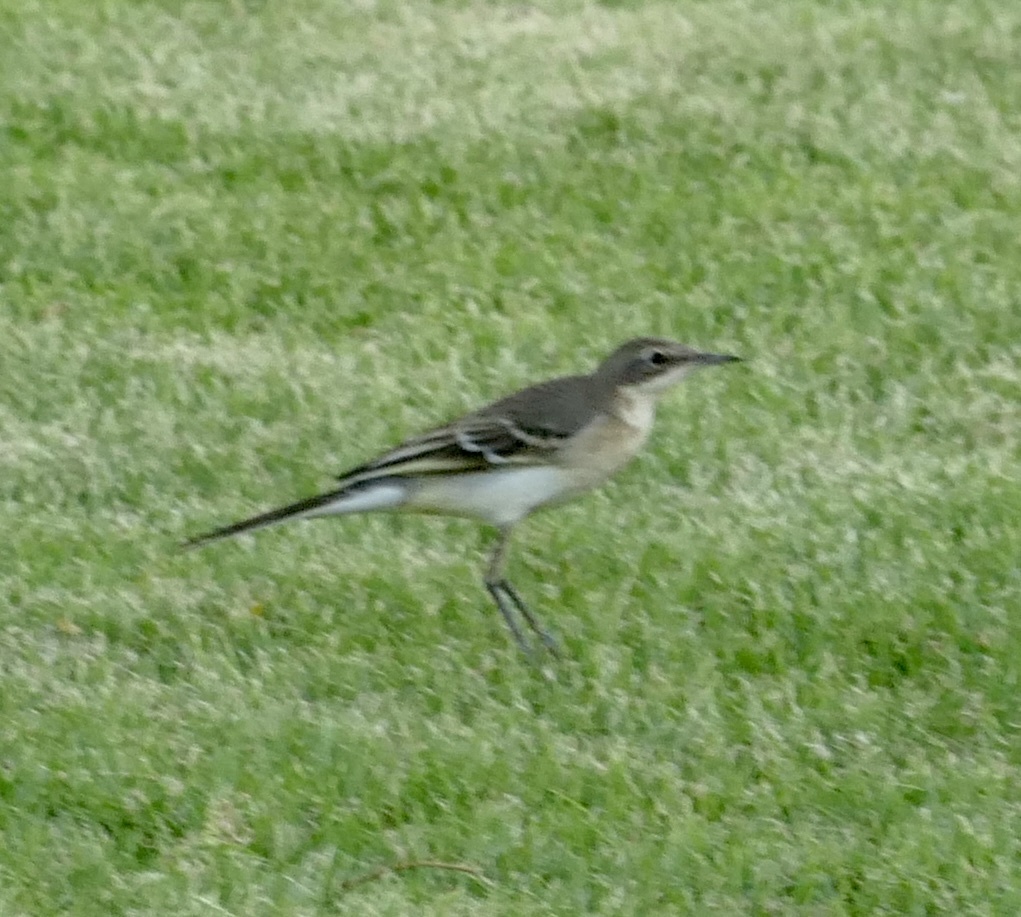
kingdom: Animalia
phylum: Chordata
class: Aves
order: Passeriformes
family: Motacillidae
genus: Motacilla
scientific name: Motacilla flava
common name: Western yellow wagtail
